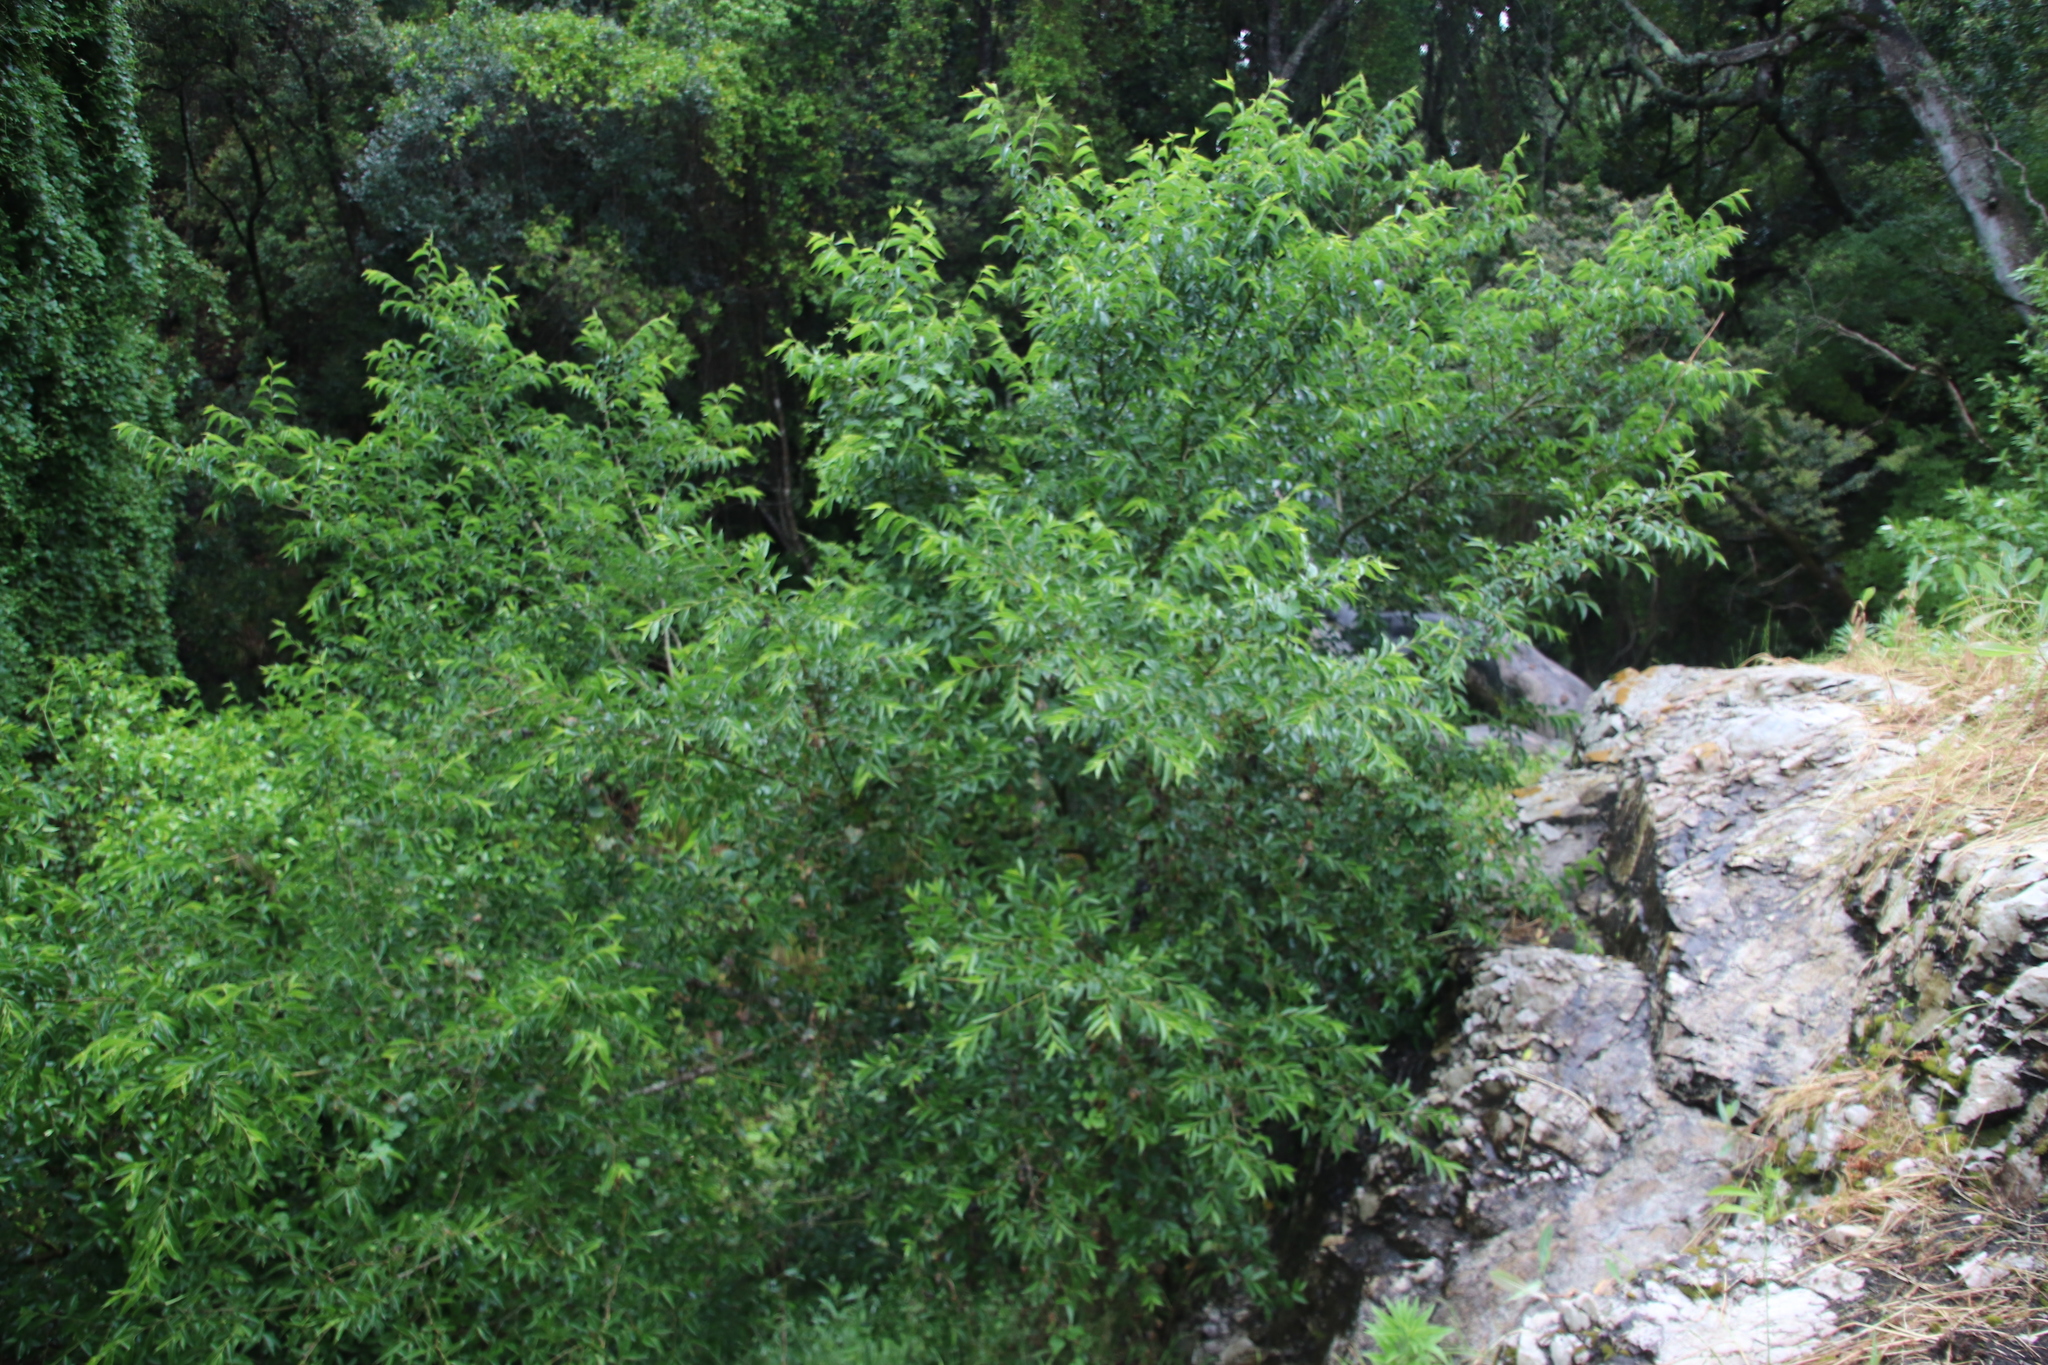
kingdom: Plantae
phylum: Tracheophyta
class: Magnoliopsida
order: Rosales
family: Cannabaceae
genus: Celtis
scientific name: Celtis africana
